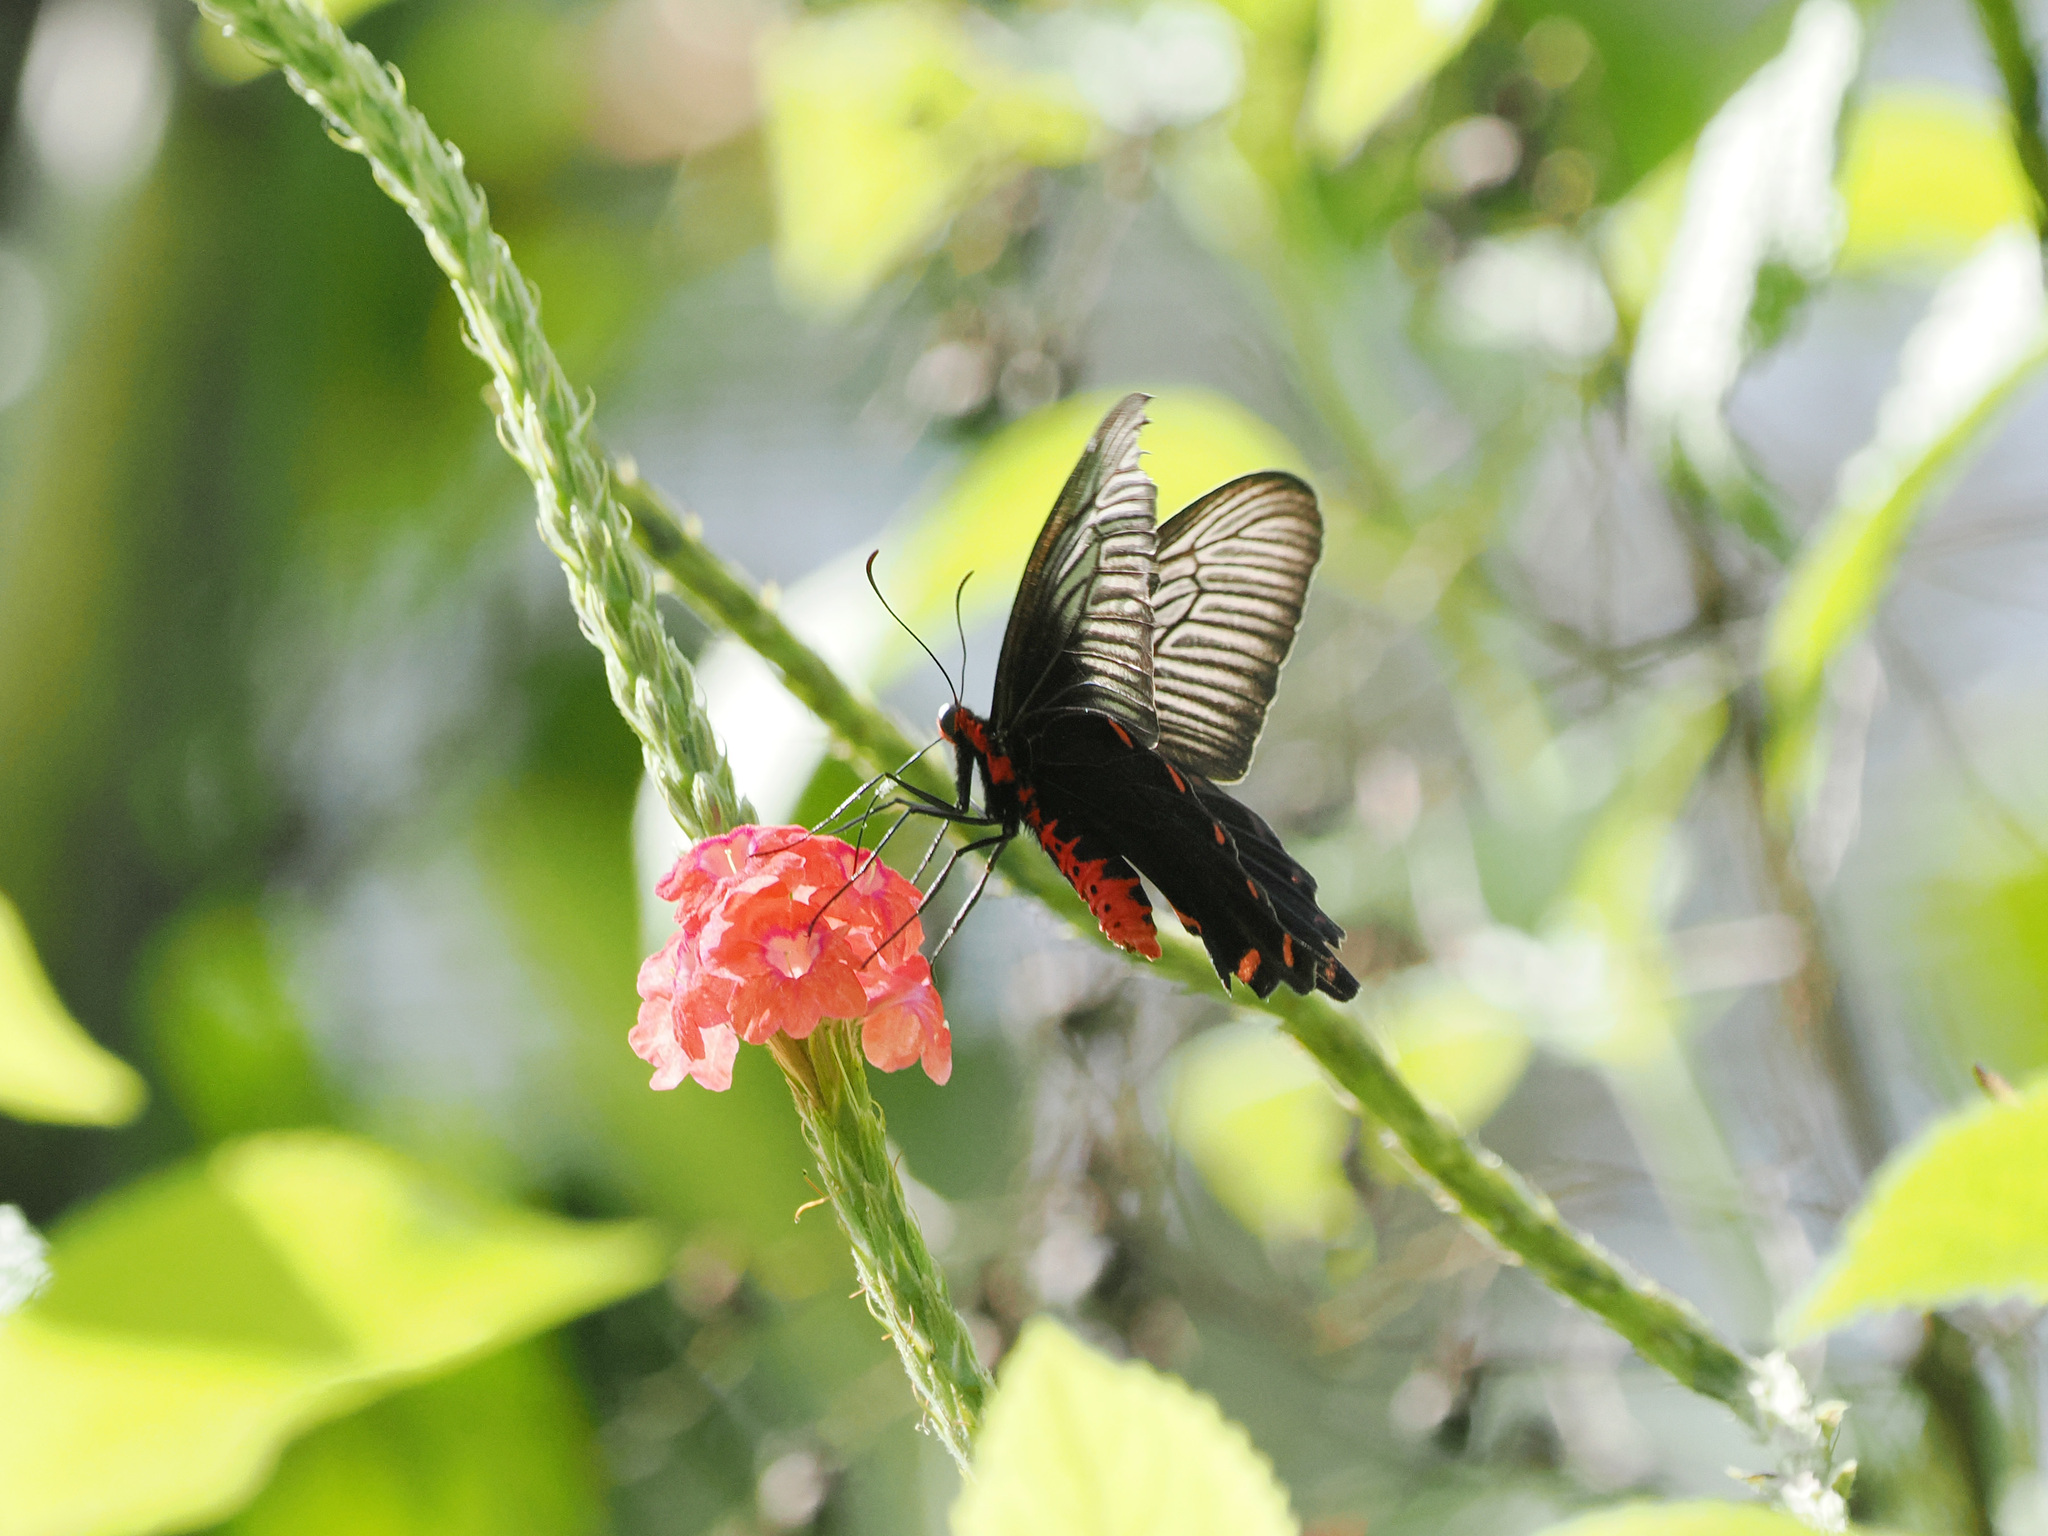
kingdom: Animalia
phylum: Arthropoda
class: Insecta
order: Lepidoptera
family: Papilionidae
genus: Pachliopta
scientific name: Pachliopta antiphus
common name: Black rose
